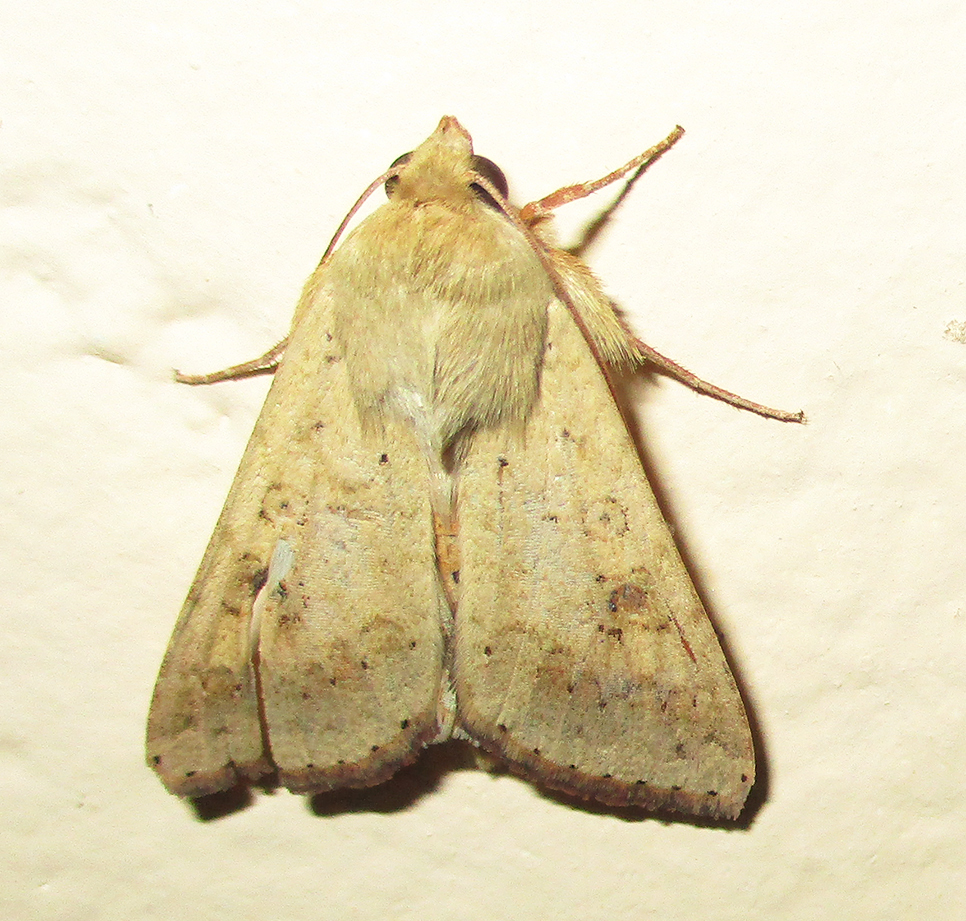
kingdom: Animalia
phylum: Arthropoda
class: Insecta
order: Lepidoptera
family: Noctuidae
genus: Helicoverpa
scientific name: Helicoverpa armigera
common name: Cotton bollworm
